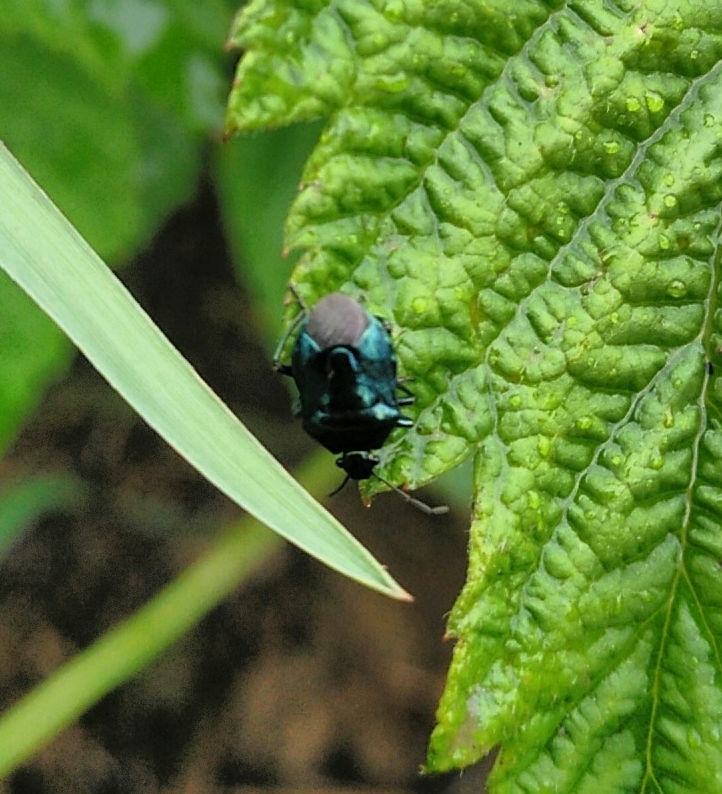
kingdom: Animalia
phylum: Arthropoda
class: Insecta
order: Hemiptera
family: Pentatomidae
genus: Zicrona
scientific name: Zicrona caerulea
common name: Blue shieldbug
